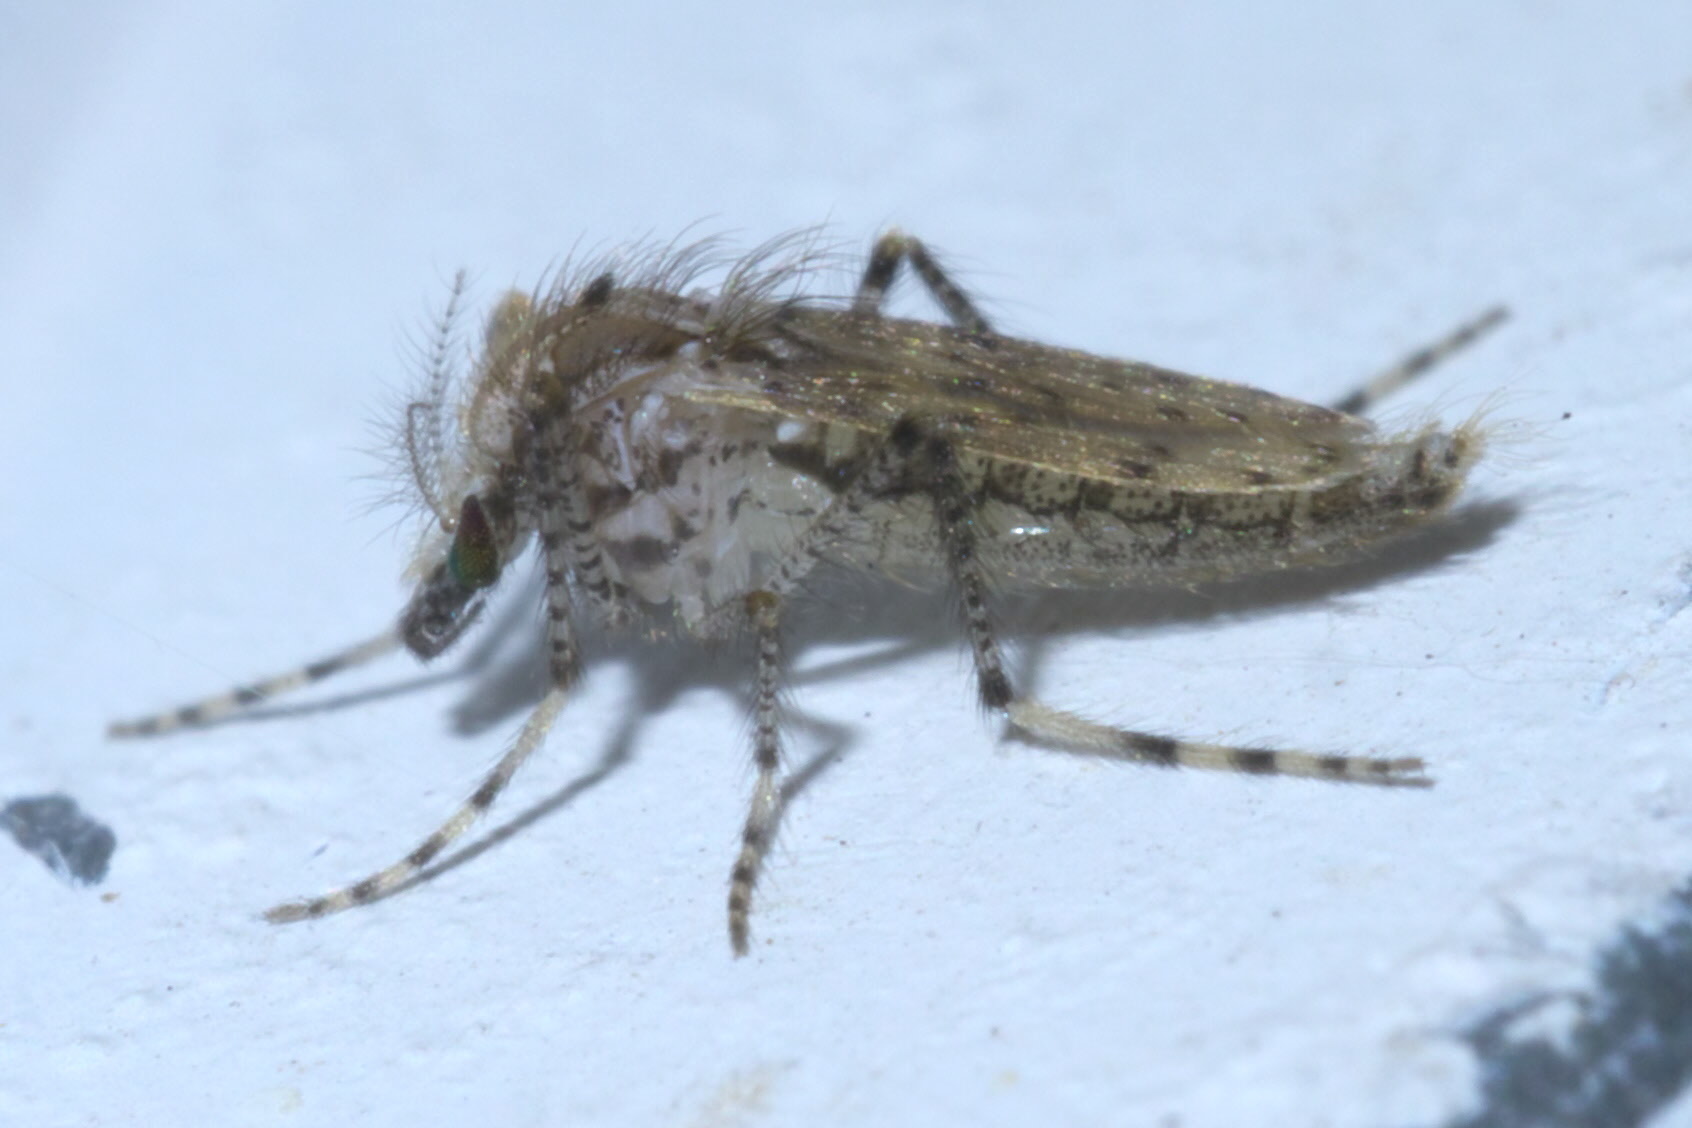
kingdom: Animalia
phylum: Arthropoda
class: Insecta
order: Diptera
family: Chaoboridae
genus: Chaoborus
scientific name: Chaoborus punctipennis
